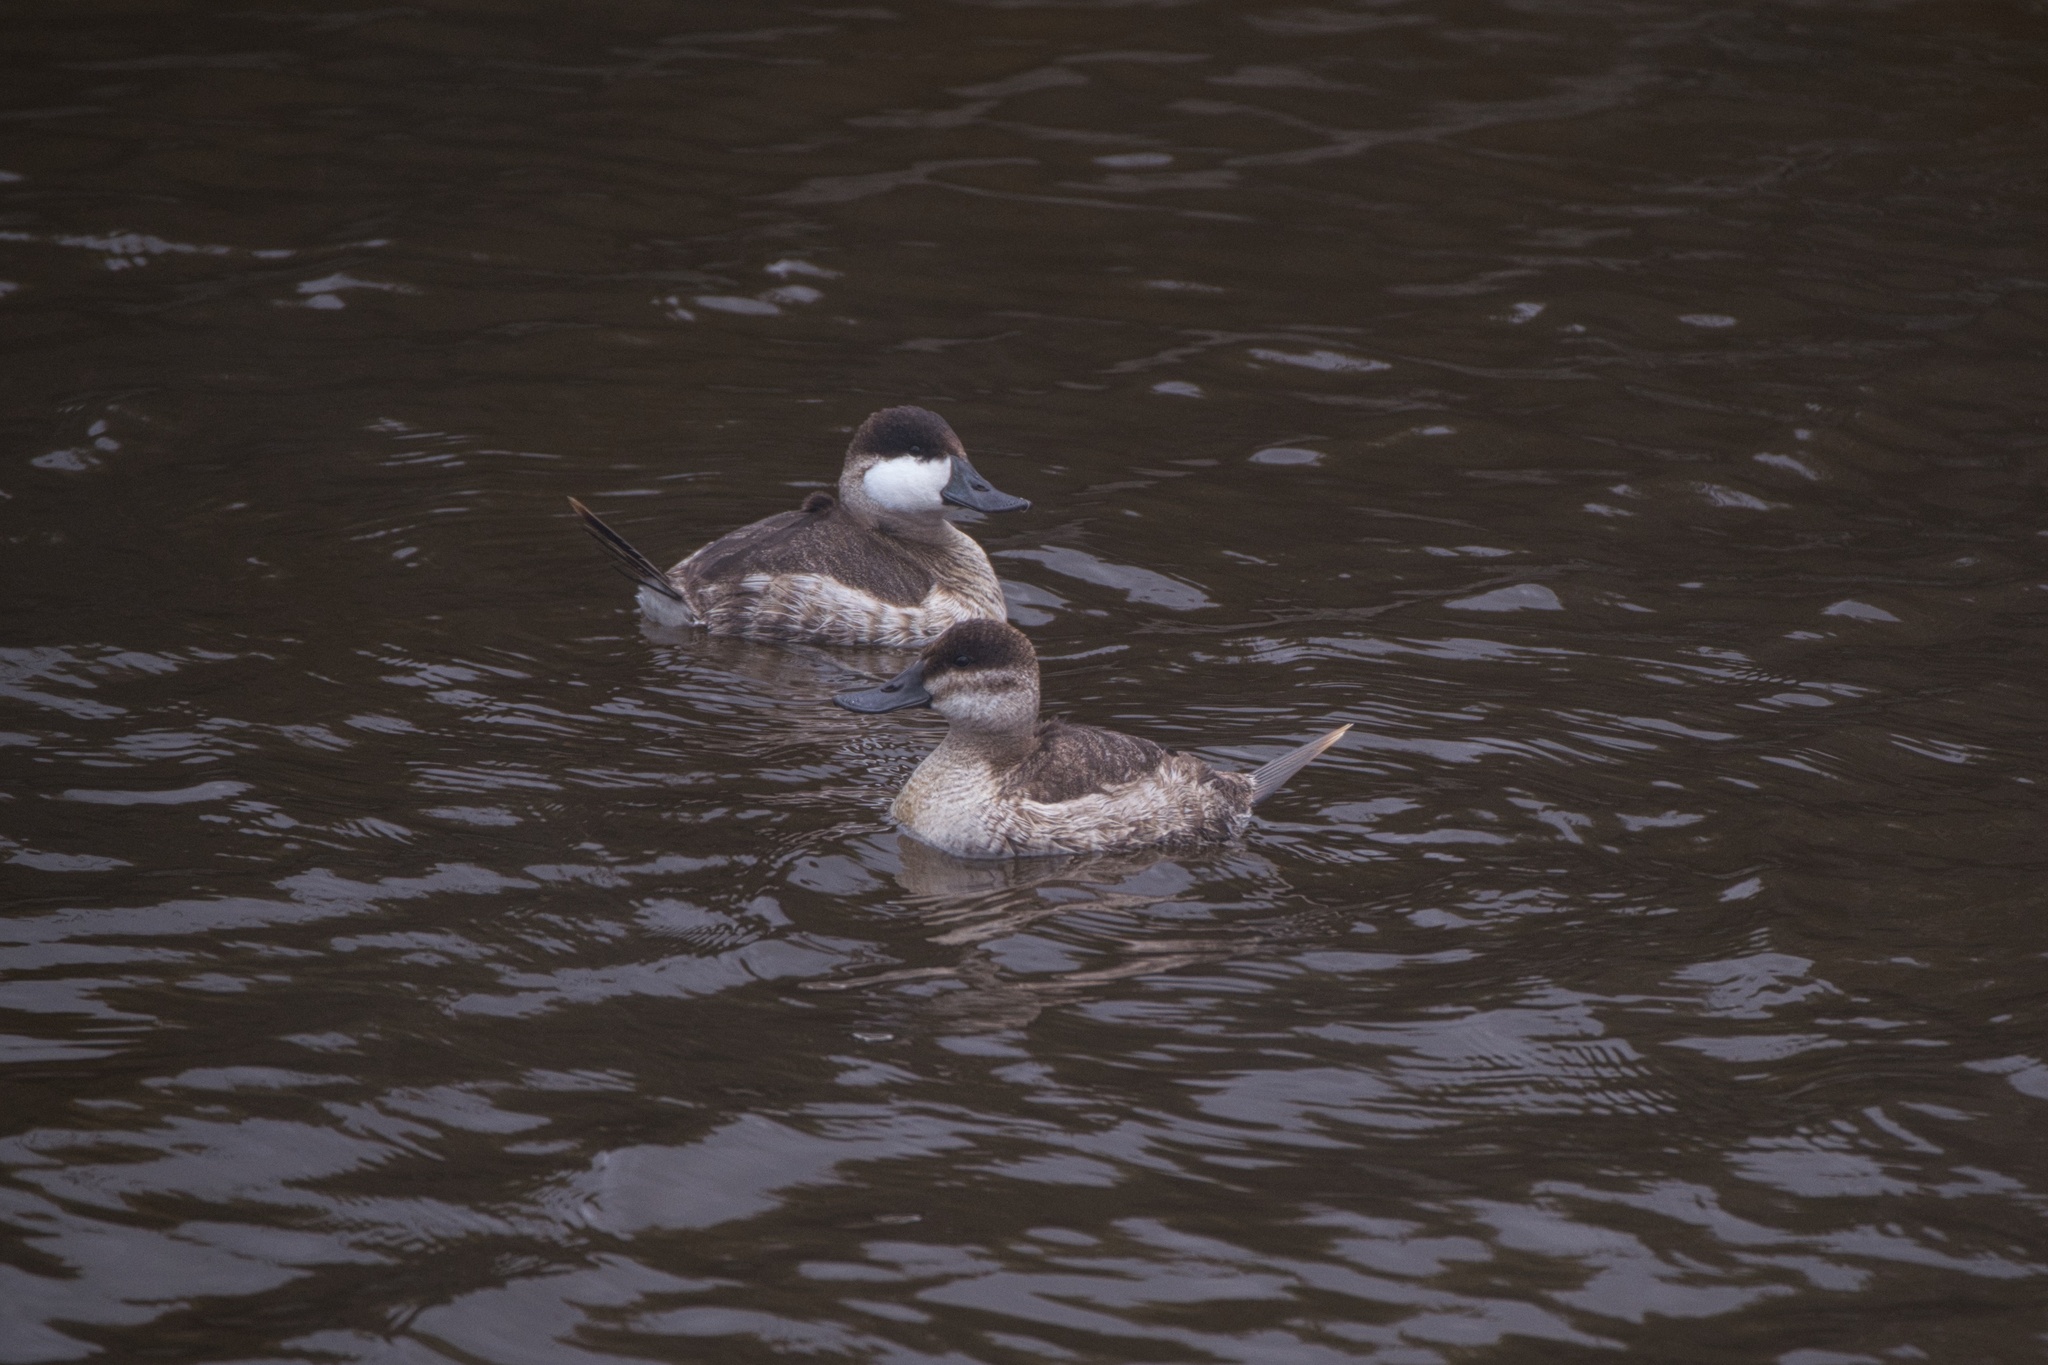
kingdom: Animalia
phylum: Chordata
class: Aves
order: Anseriformes
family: Anatidae
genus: Oxyura
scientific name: Oxyura jamaicensis
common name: Ruddy duck
